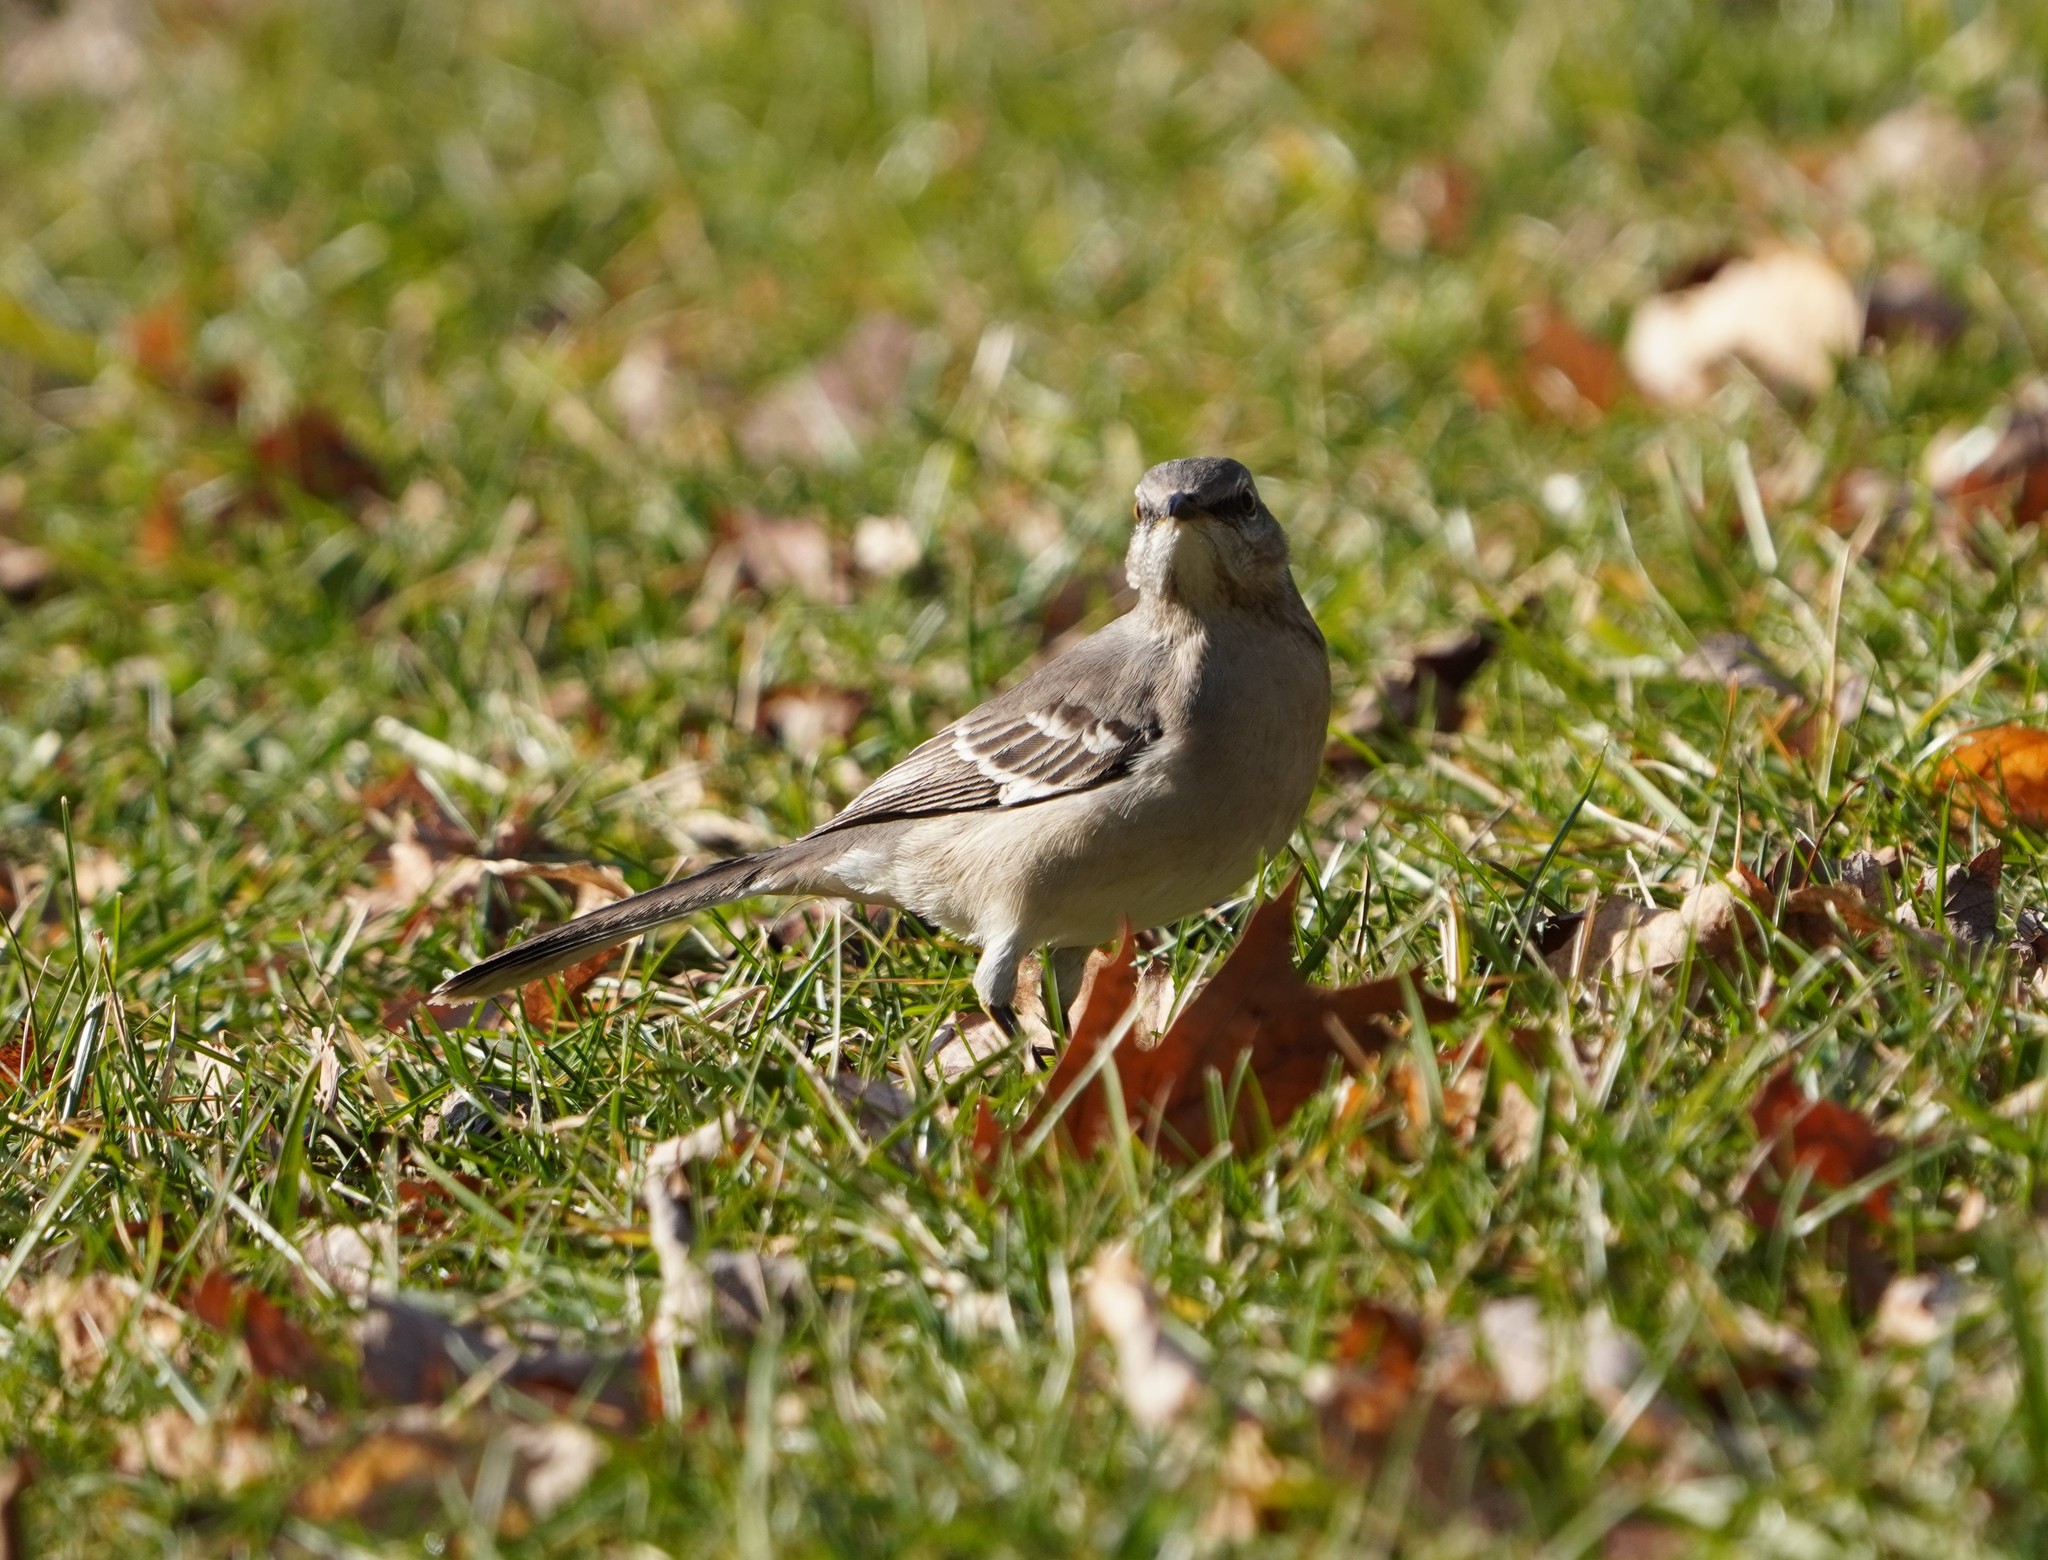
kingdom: Animalia
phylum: Chordata
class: Aves
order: Passeriformes
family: Mimidae
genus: Mimus
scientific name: Mimus polyglottos
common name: Northern mockingbird
